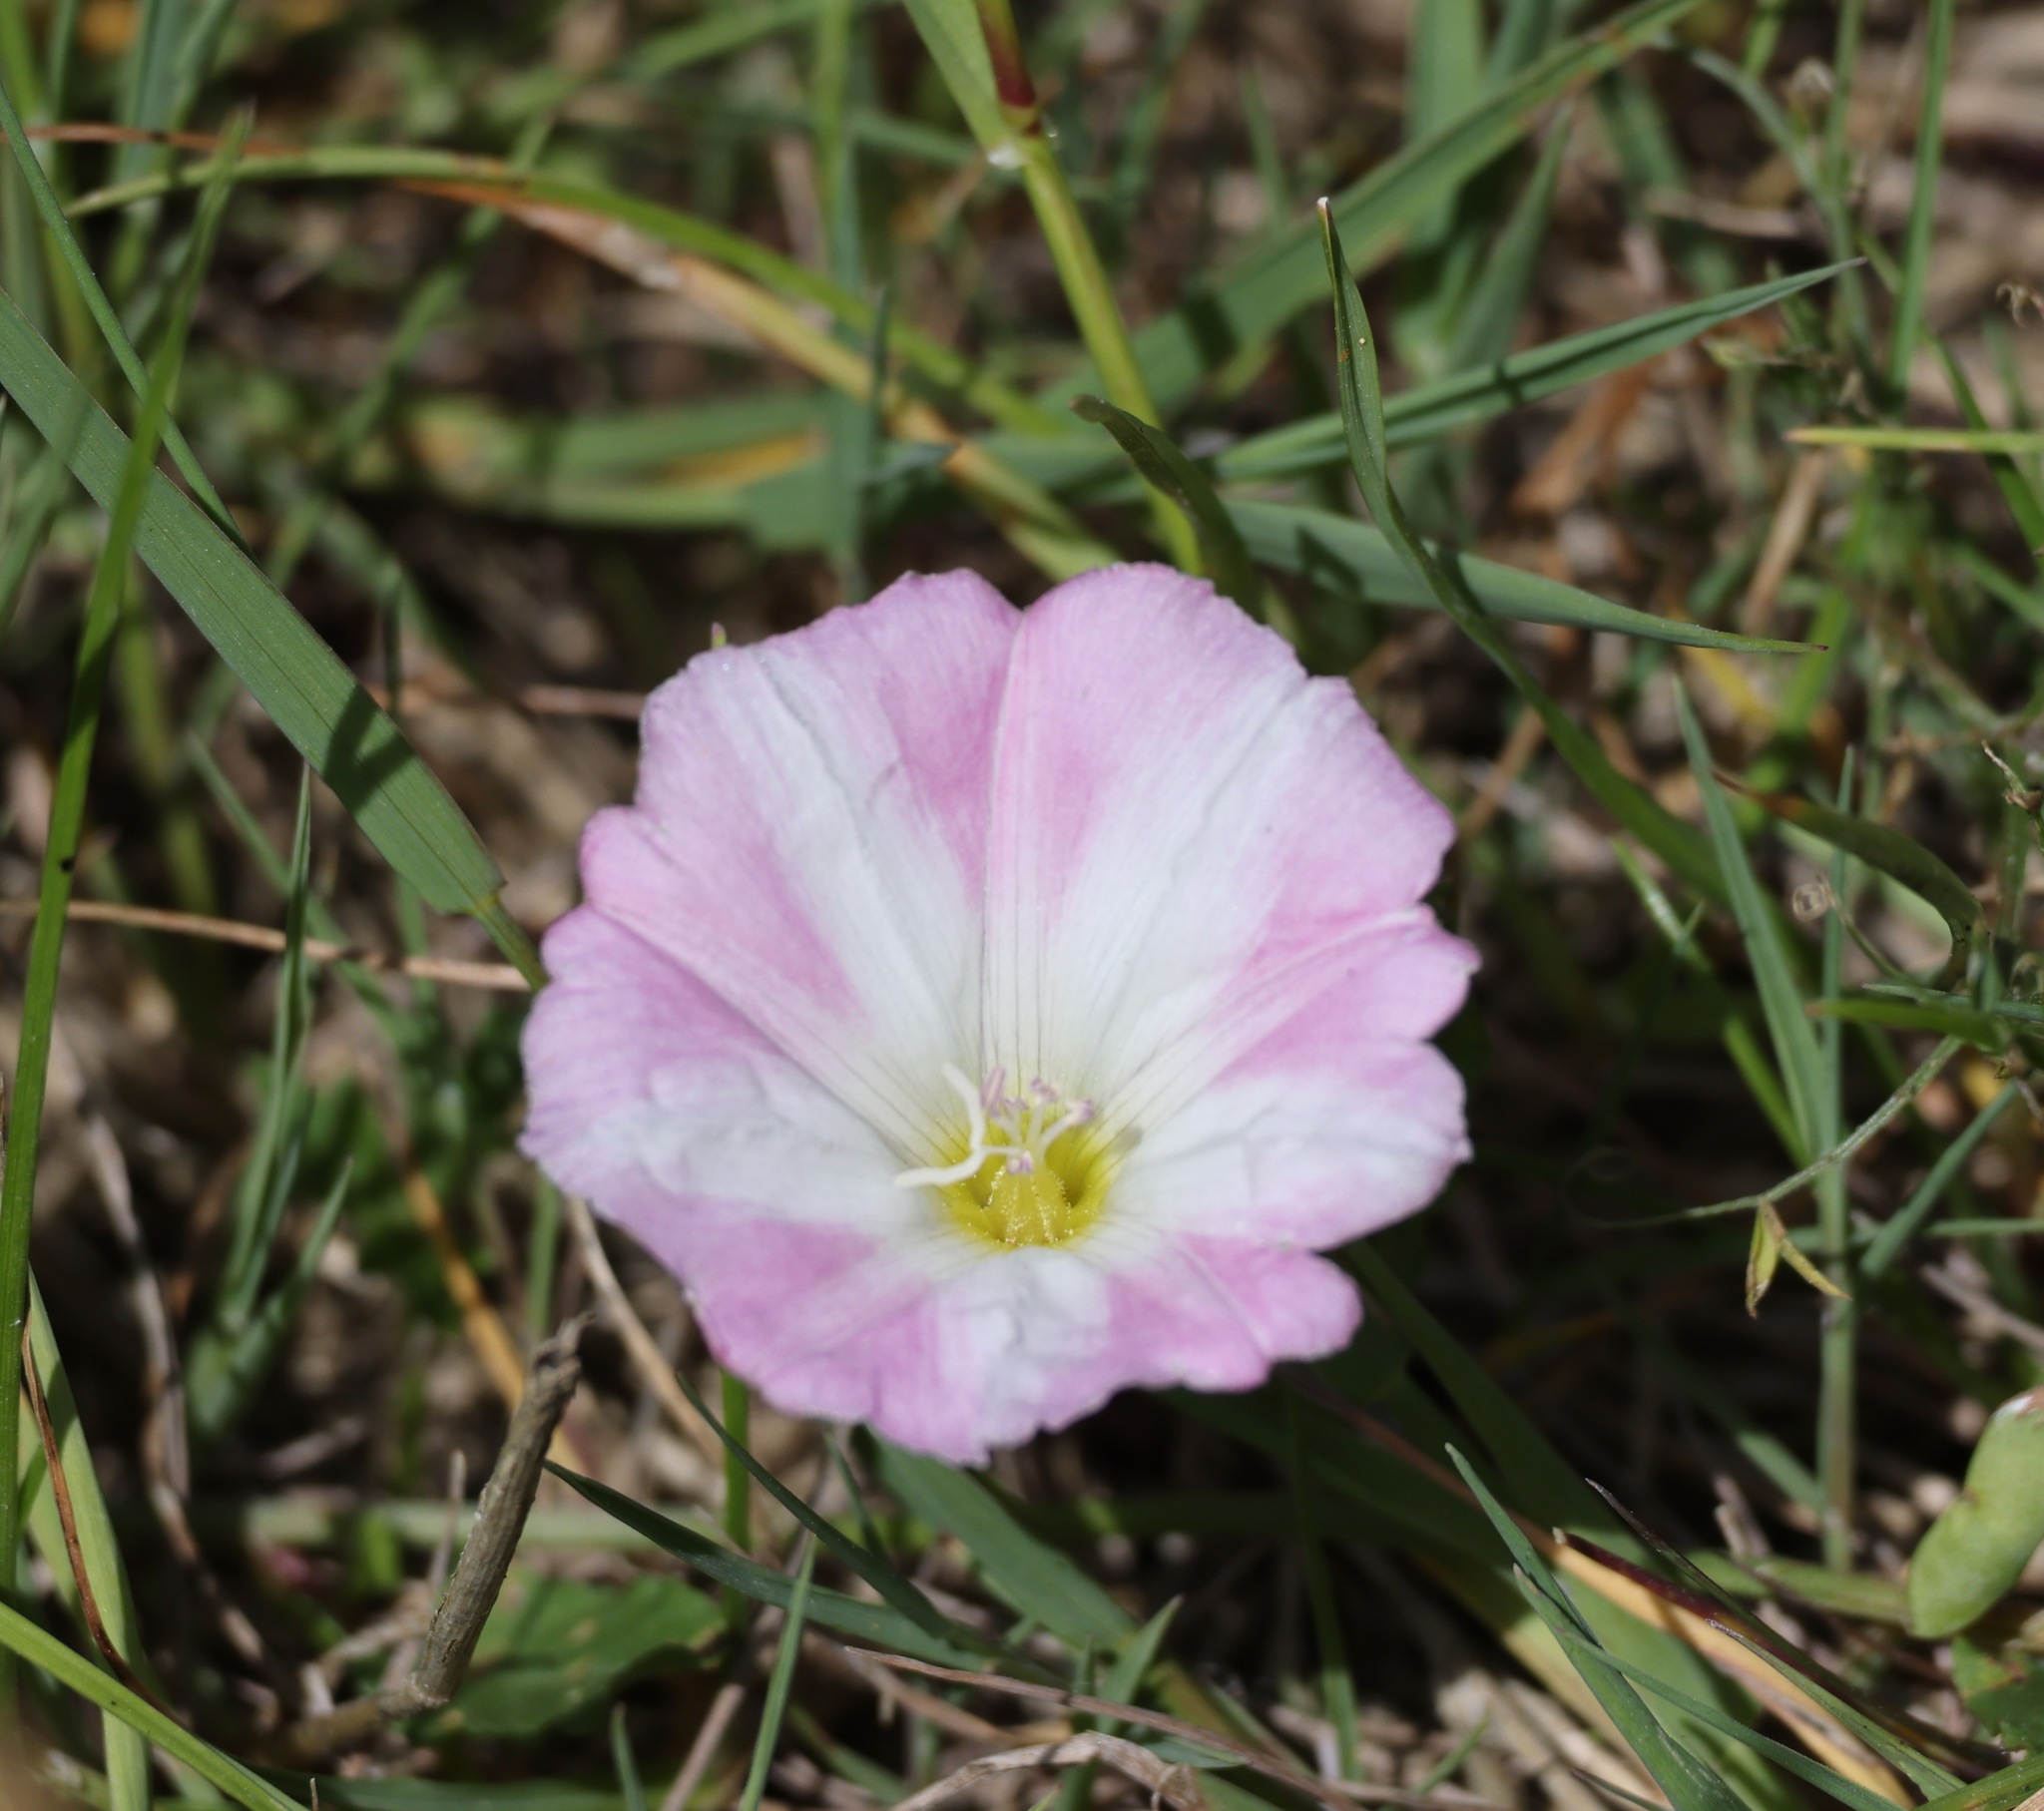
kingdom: Plantae
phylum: Tracheophyta
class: Magnoliopsida
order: Solanales
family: Convolvulaceae
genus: Convolvulus
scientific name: Convolvulus arvensis
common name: Field bindweed
